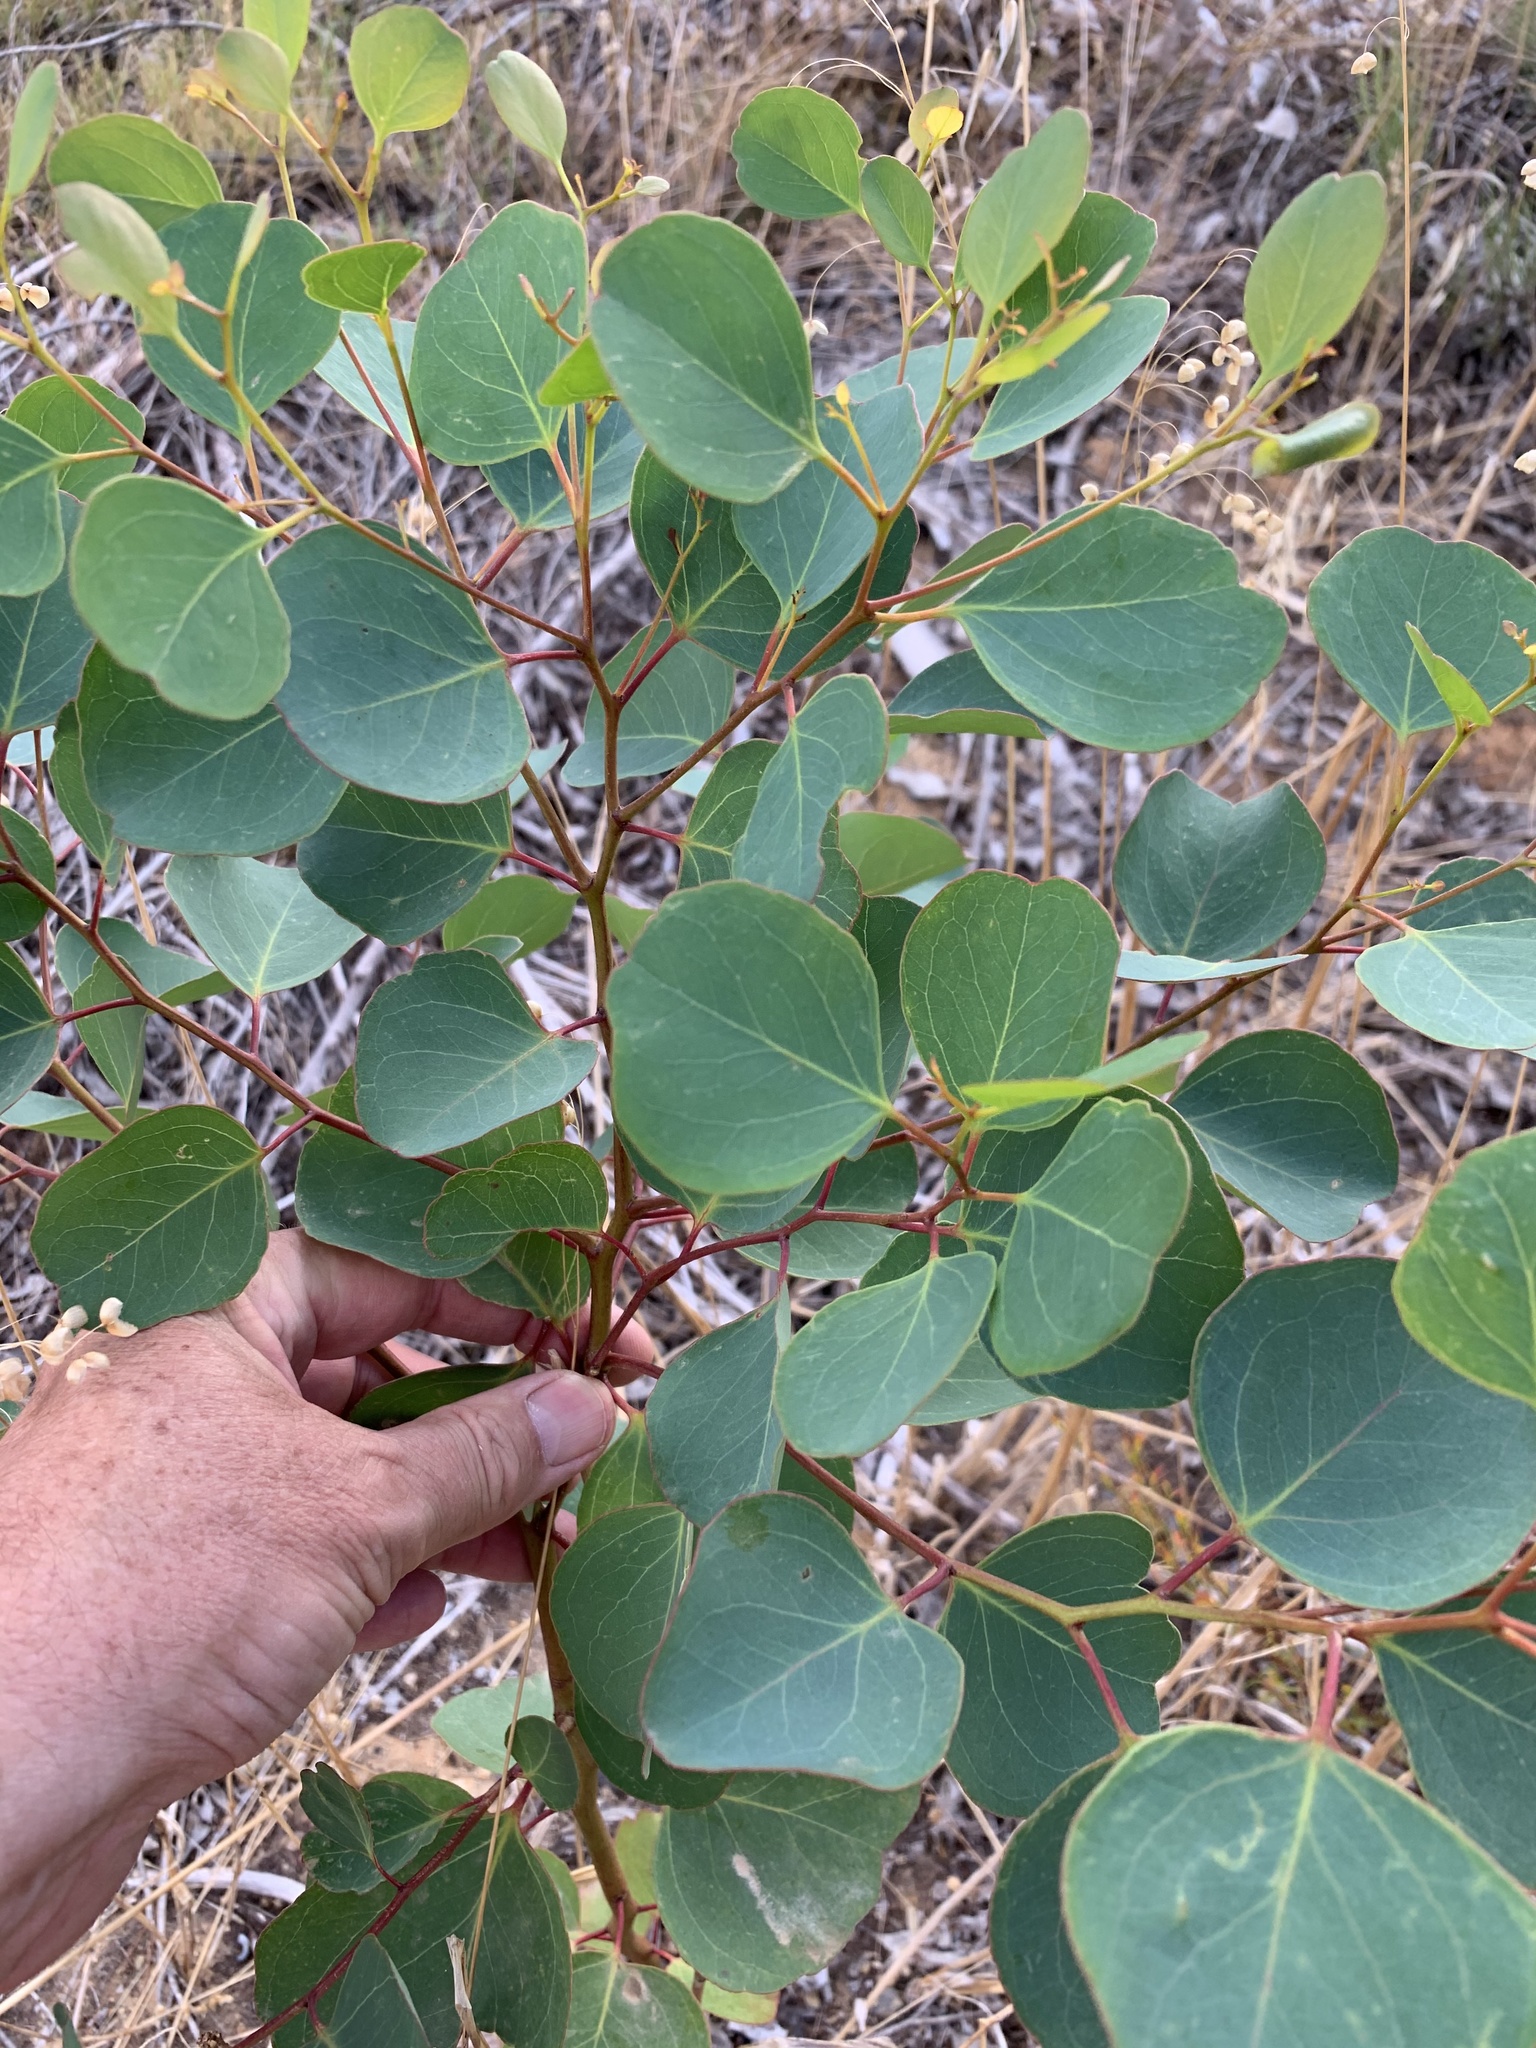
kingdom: Plantae
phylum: Tracheophyta
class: Magnoliopsida
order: Myrtales
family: Myrtaceae
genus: Eucalyptus
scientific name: Eucalyptus cladocalyx
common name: Sugargum
